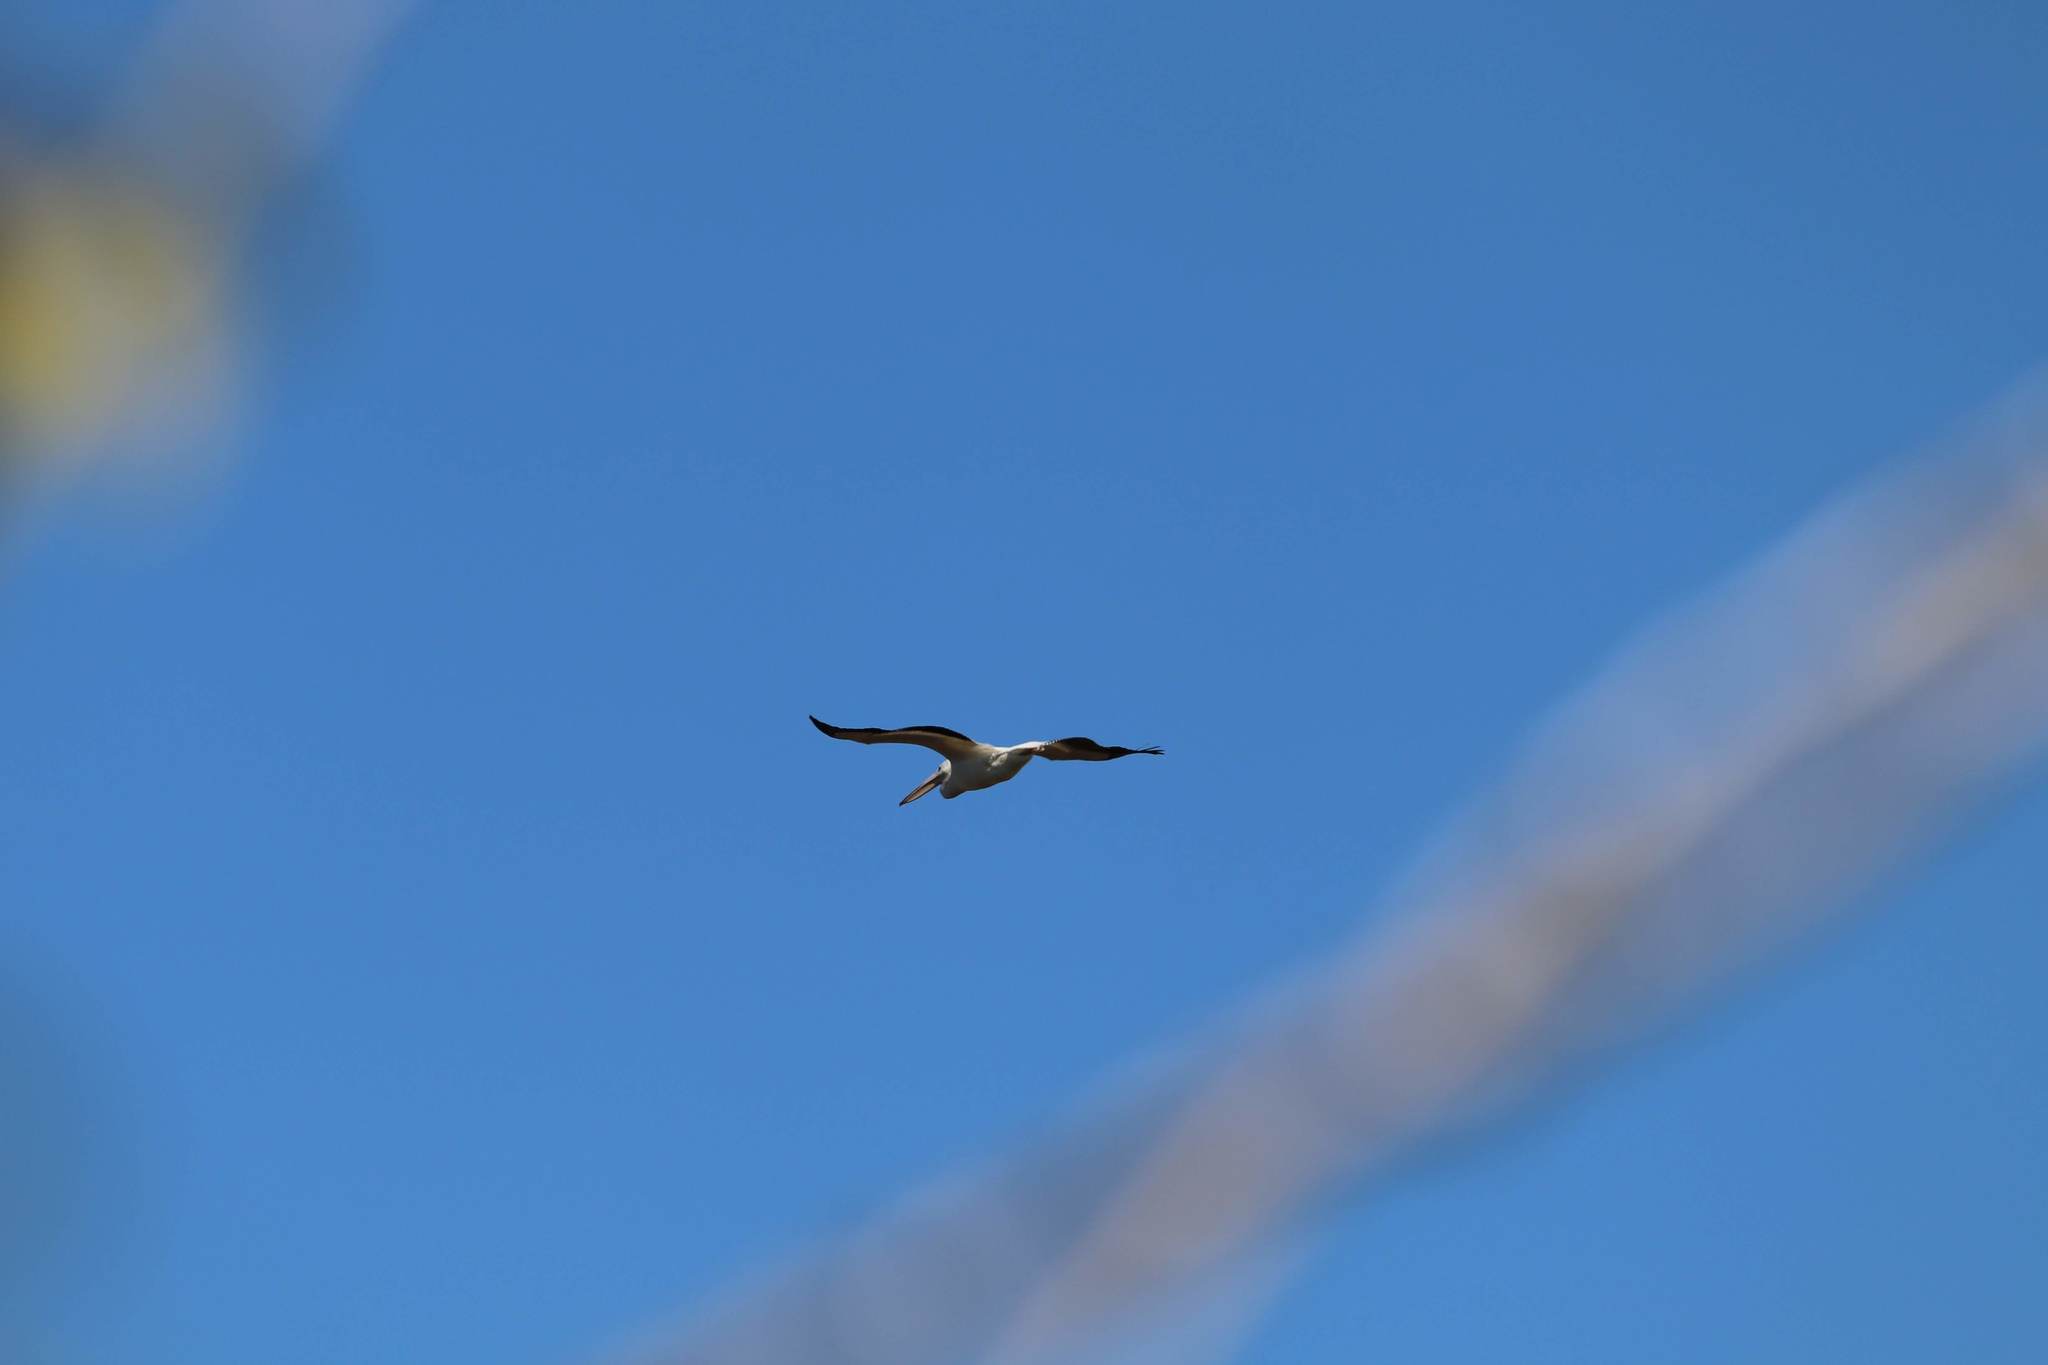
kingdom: Animalia
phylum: Chordata
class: Aves
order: Pelecaniformes
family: Pelecanidae
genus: Pelecanus
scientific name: Pelecanus erythrorhynchos
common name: American white pelican
